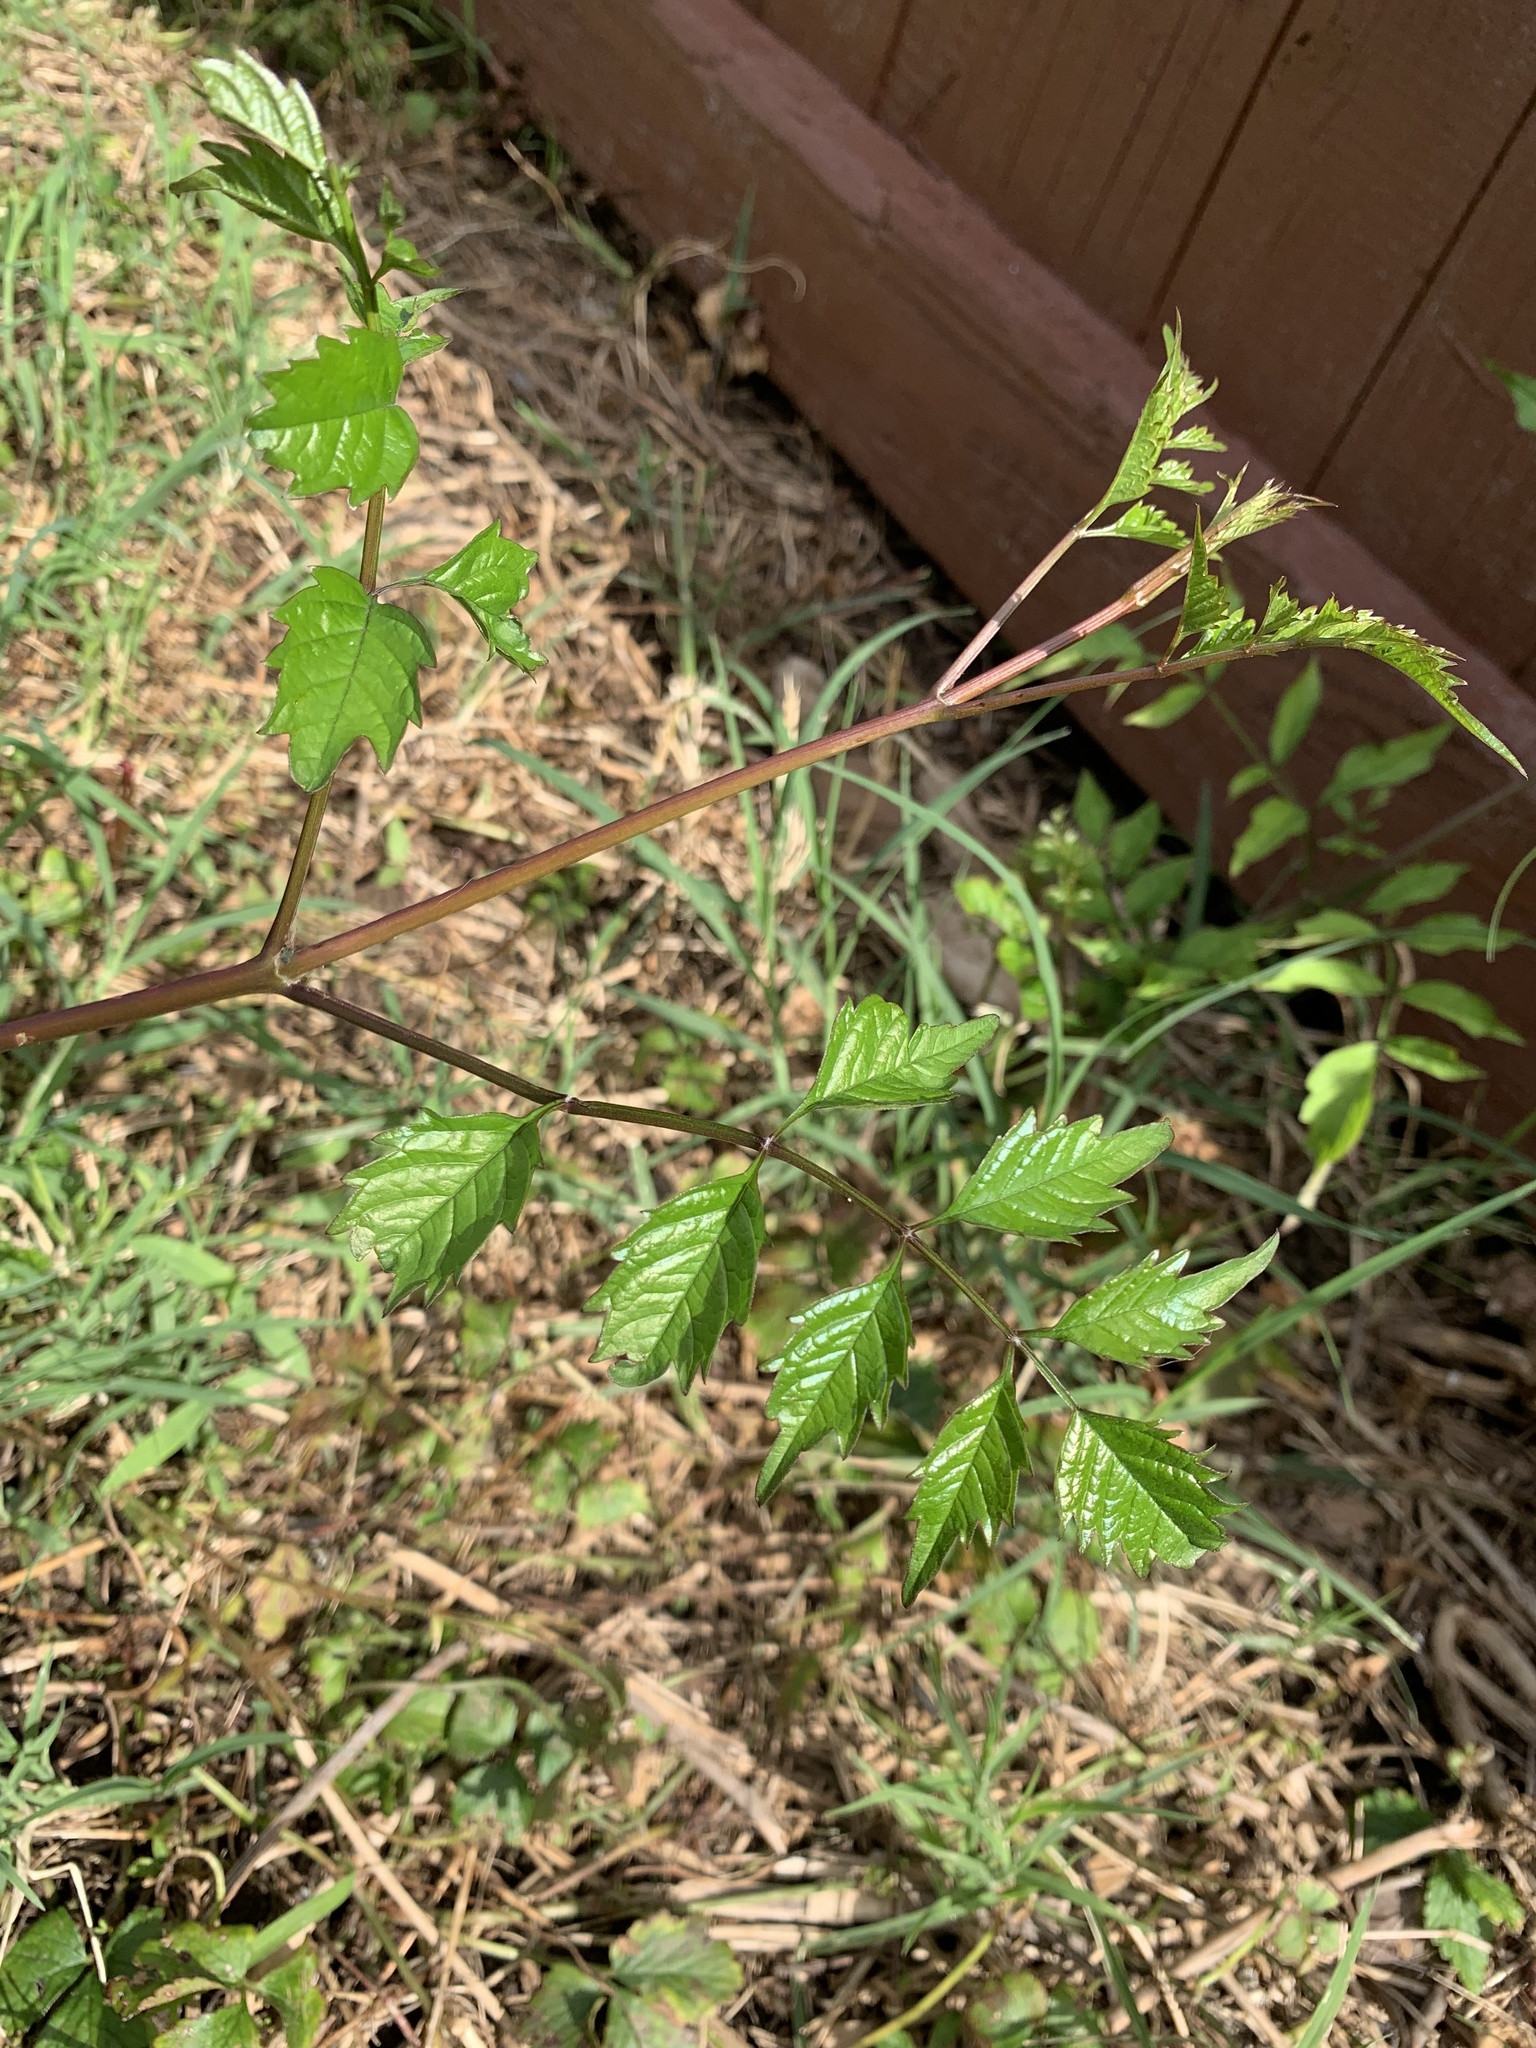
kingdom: Plantae
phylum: Tracheophyta
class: Magnoliopsida
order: Lamiales
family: Bignoniaceae
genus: Campsis
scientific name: Campsis radicans
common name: Trumpet-creeper
